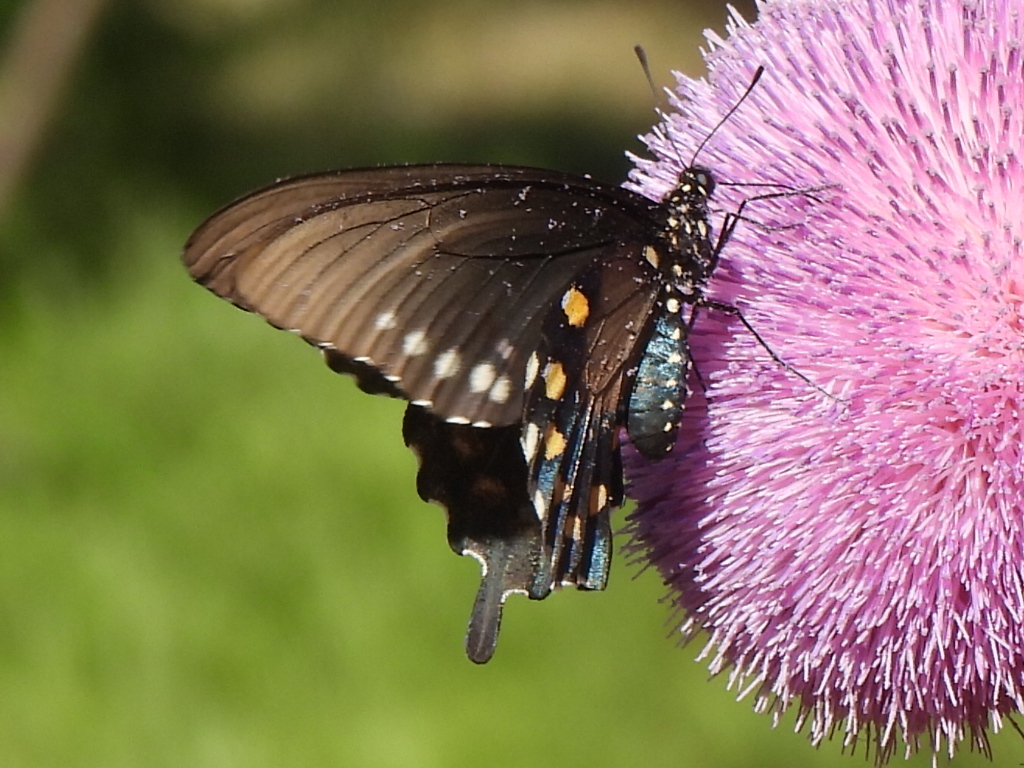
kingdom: Animalia
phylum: Arthropoda
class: Insecta
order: Lepidoptera
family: Papilionidae
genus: Battus
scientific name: Battus philenor
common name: Pipevine swallowtail
